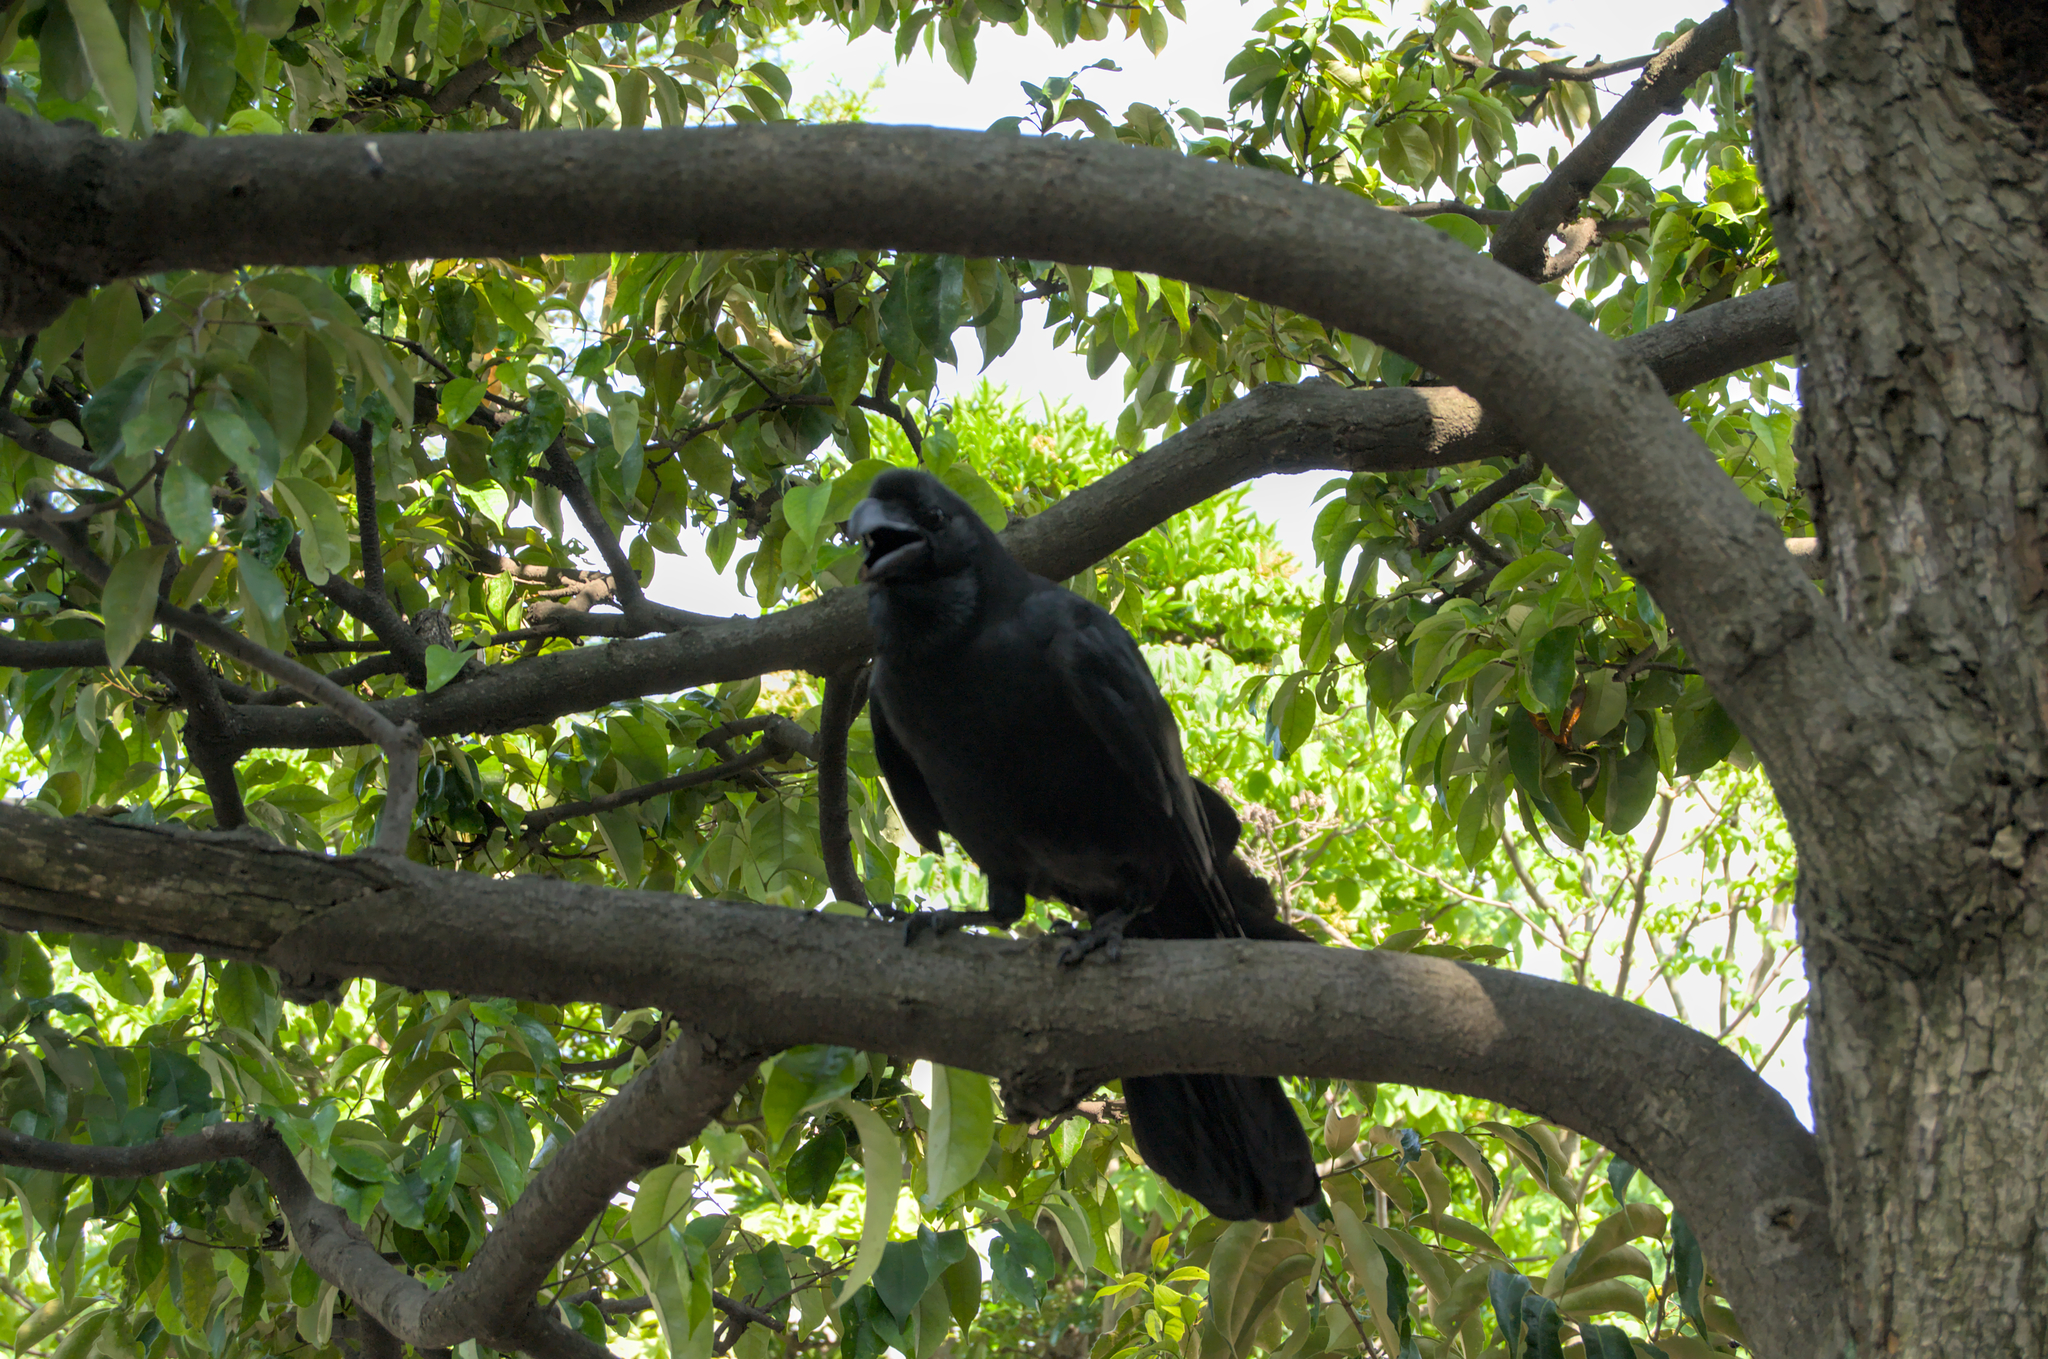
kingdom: Animalia
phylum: Chordata
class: Aves
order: Passeriformes
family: Corvidae
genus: Corvus
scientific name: Corvus macrorhynchos
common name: Large-billed crow
